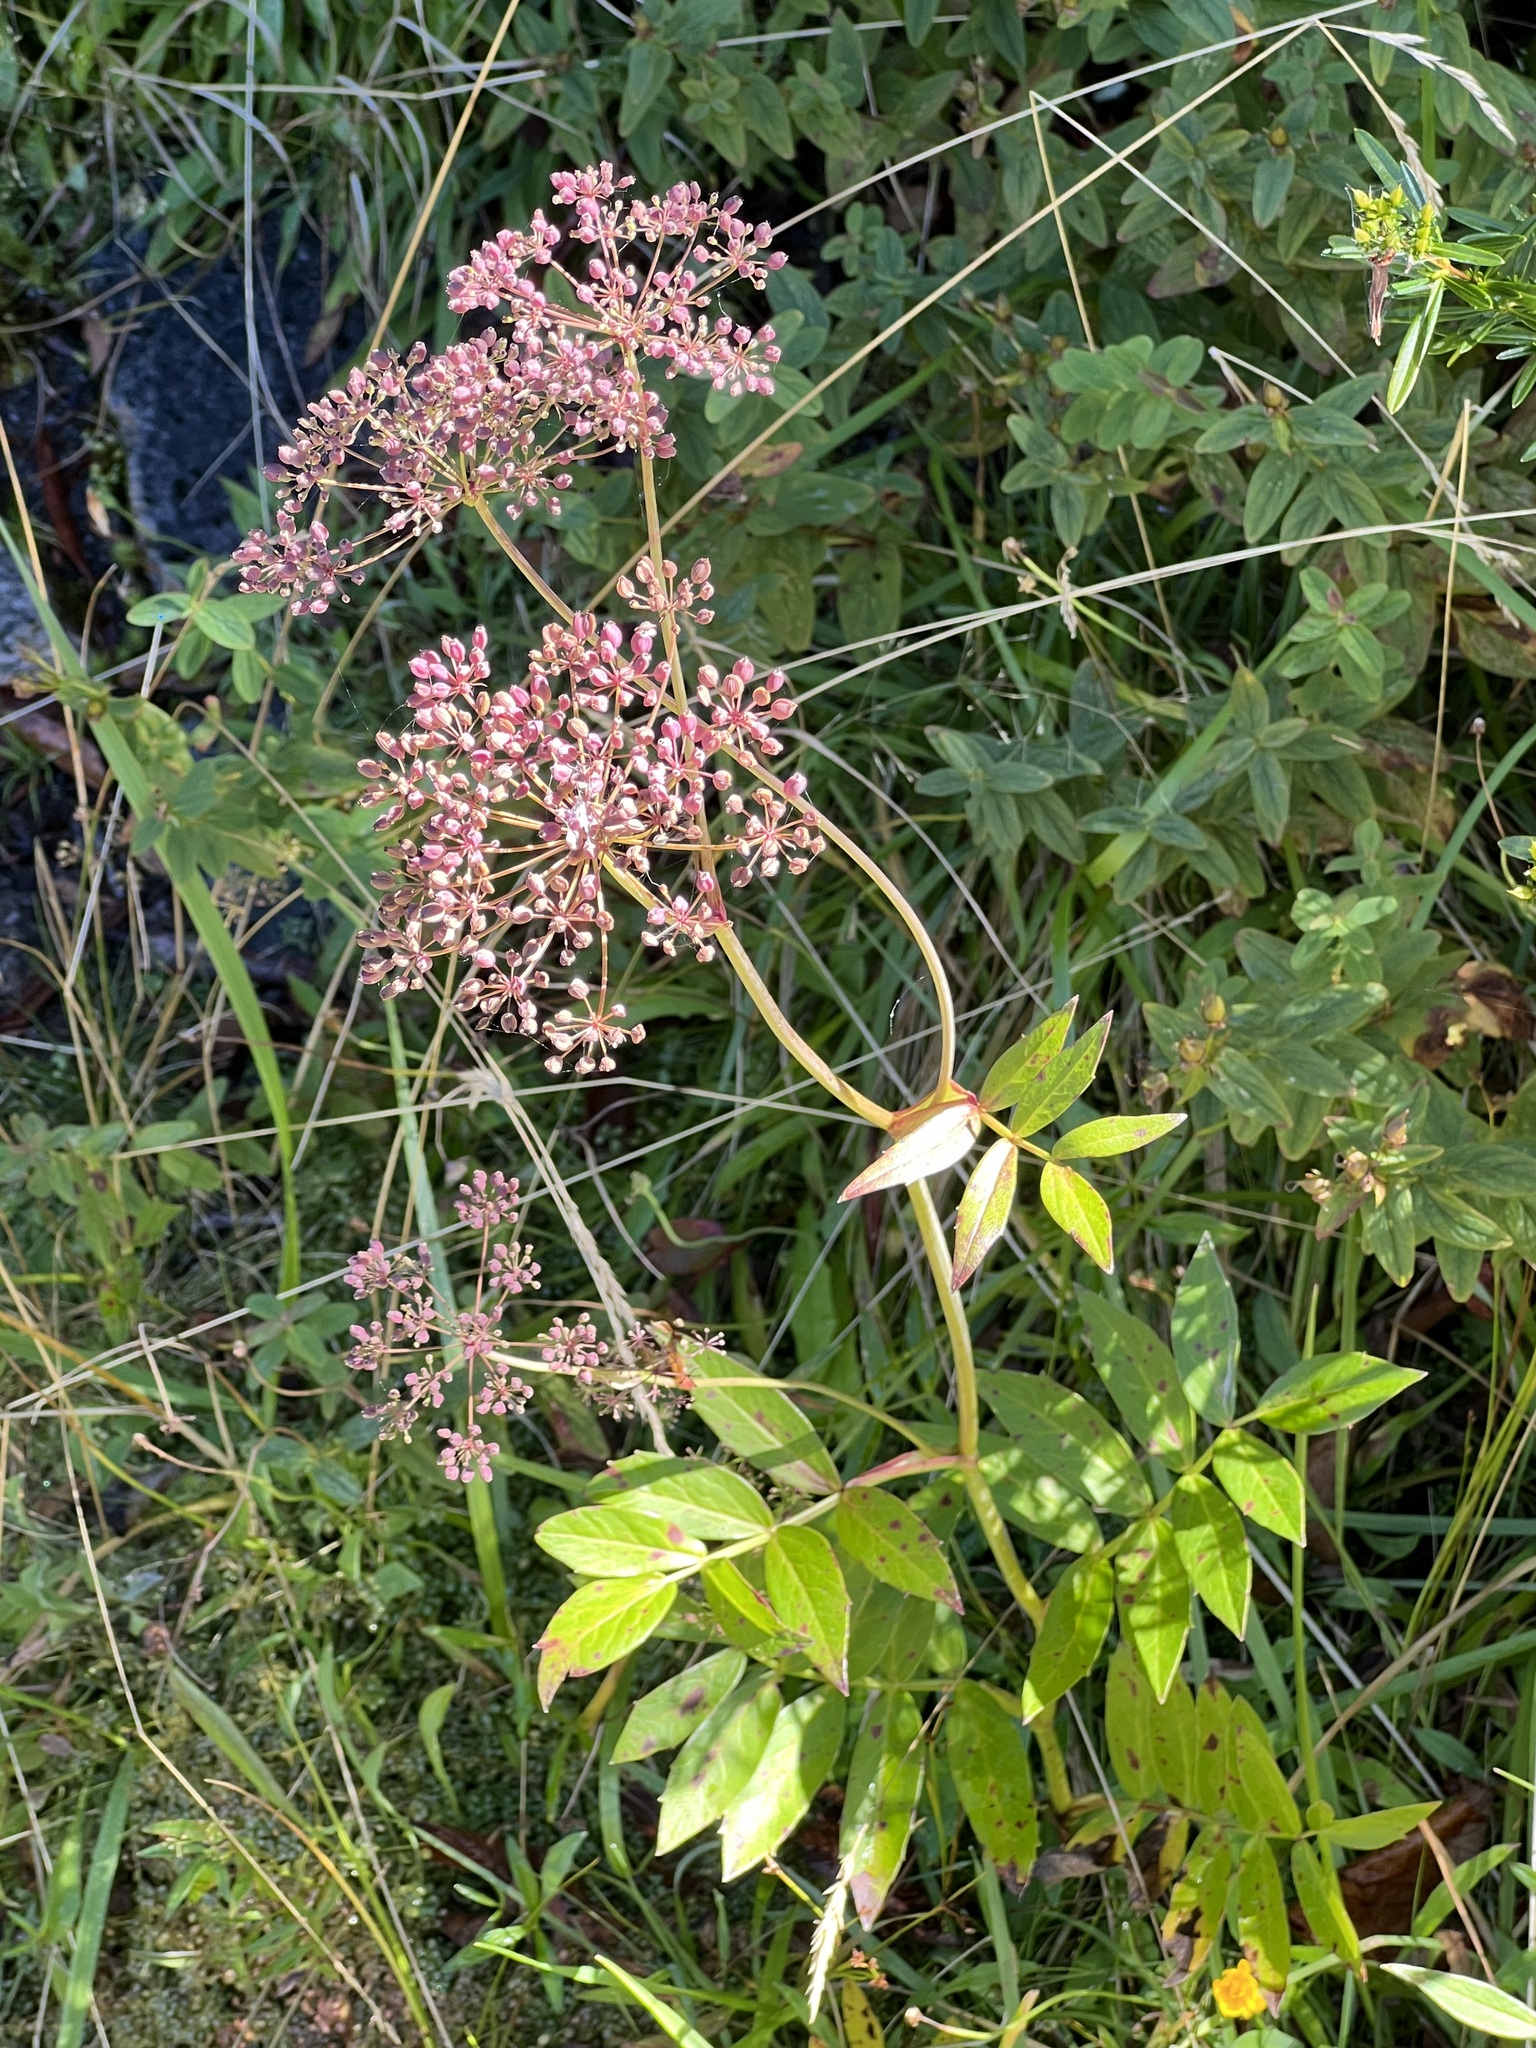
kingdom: Plantae
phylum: Tracheophyta
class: Magnoliopsida
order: Apiales
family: Apiaceae
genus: Oxypolis
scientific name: Oxypolis rigidior
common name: Cowbane
